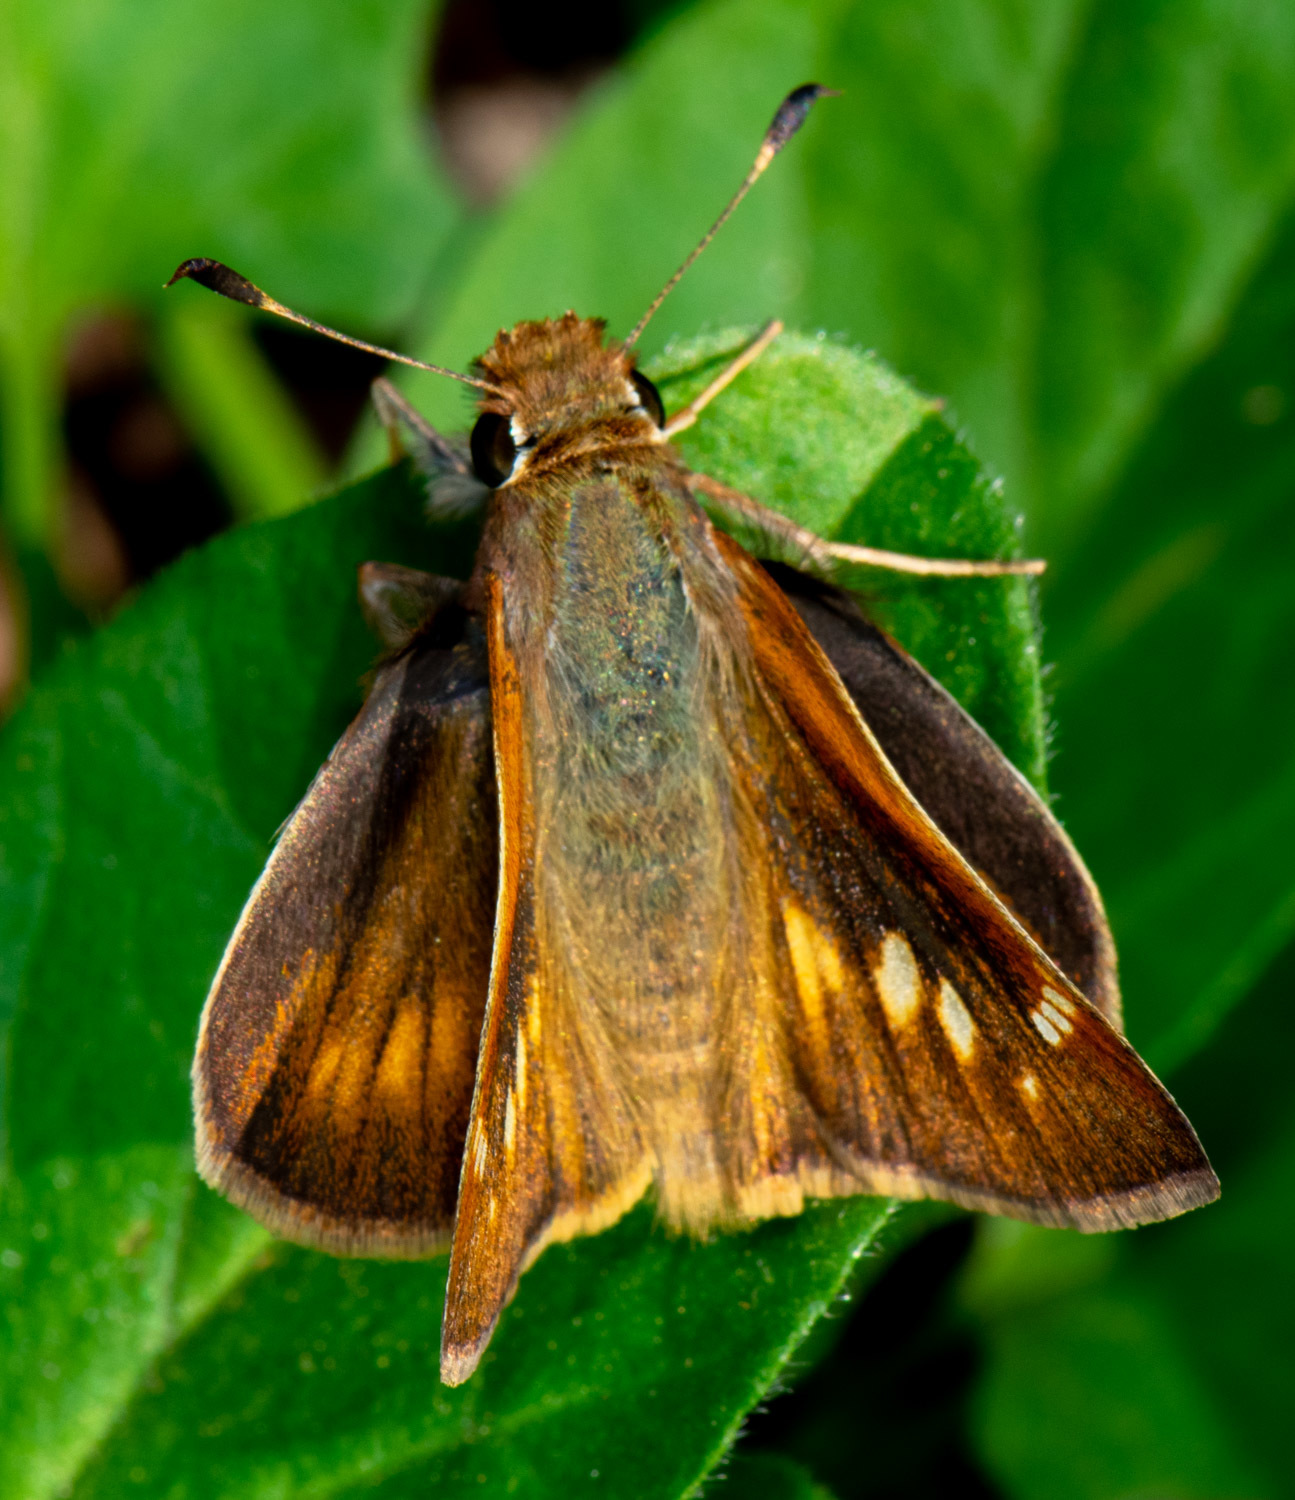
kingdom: Animalia
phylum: Arthropoda
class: Insecta
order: Lepidoptera
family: Hesperiidae
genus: Lon
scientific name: Lon melane
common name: Umber skipper
